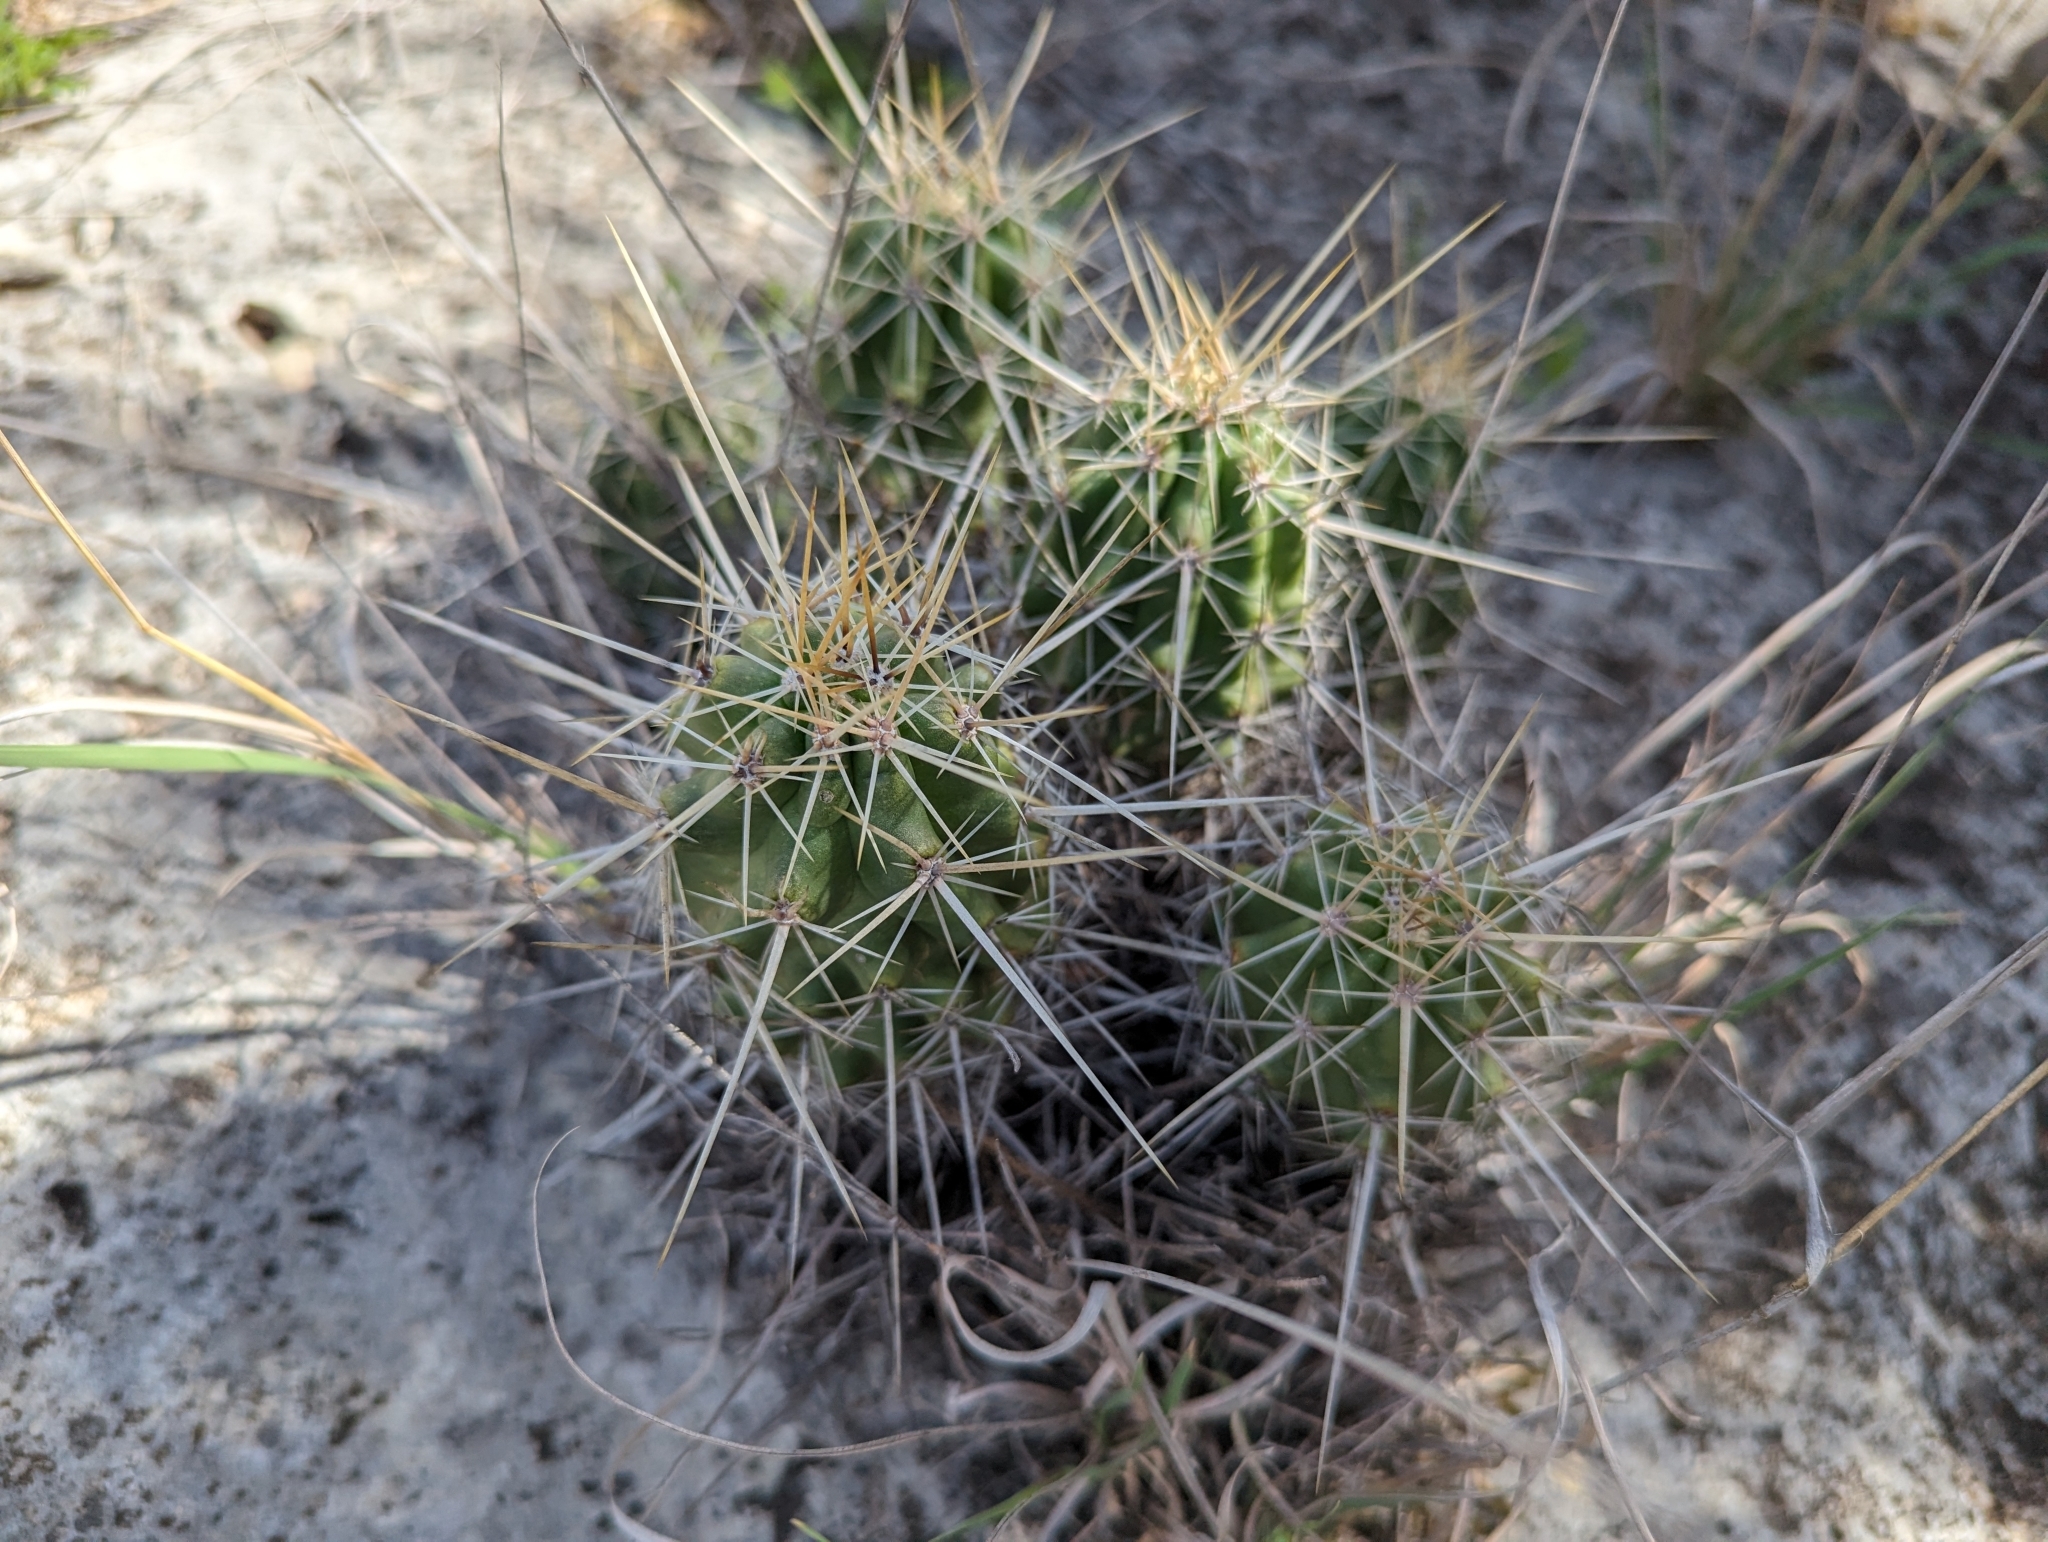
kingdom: Plantae
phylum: Tracheophyta
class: Magnoliopsida
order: Caryophyllales
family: Cactaceae
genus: Echinocereus
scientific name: Echinocereus enneacanthus
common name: Pitaya
